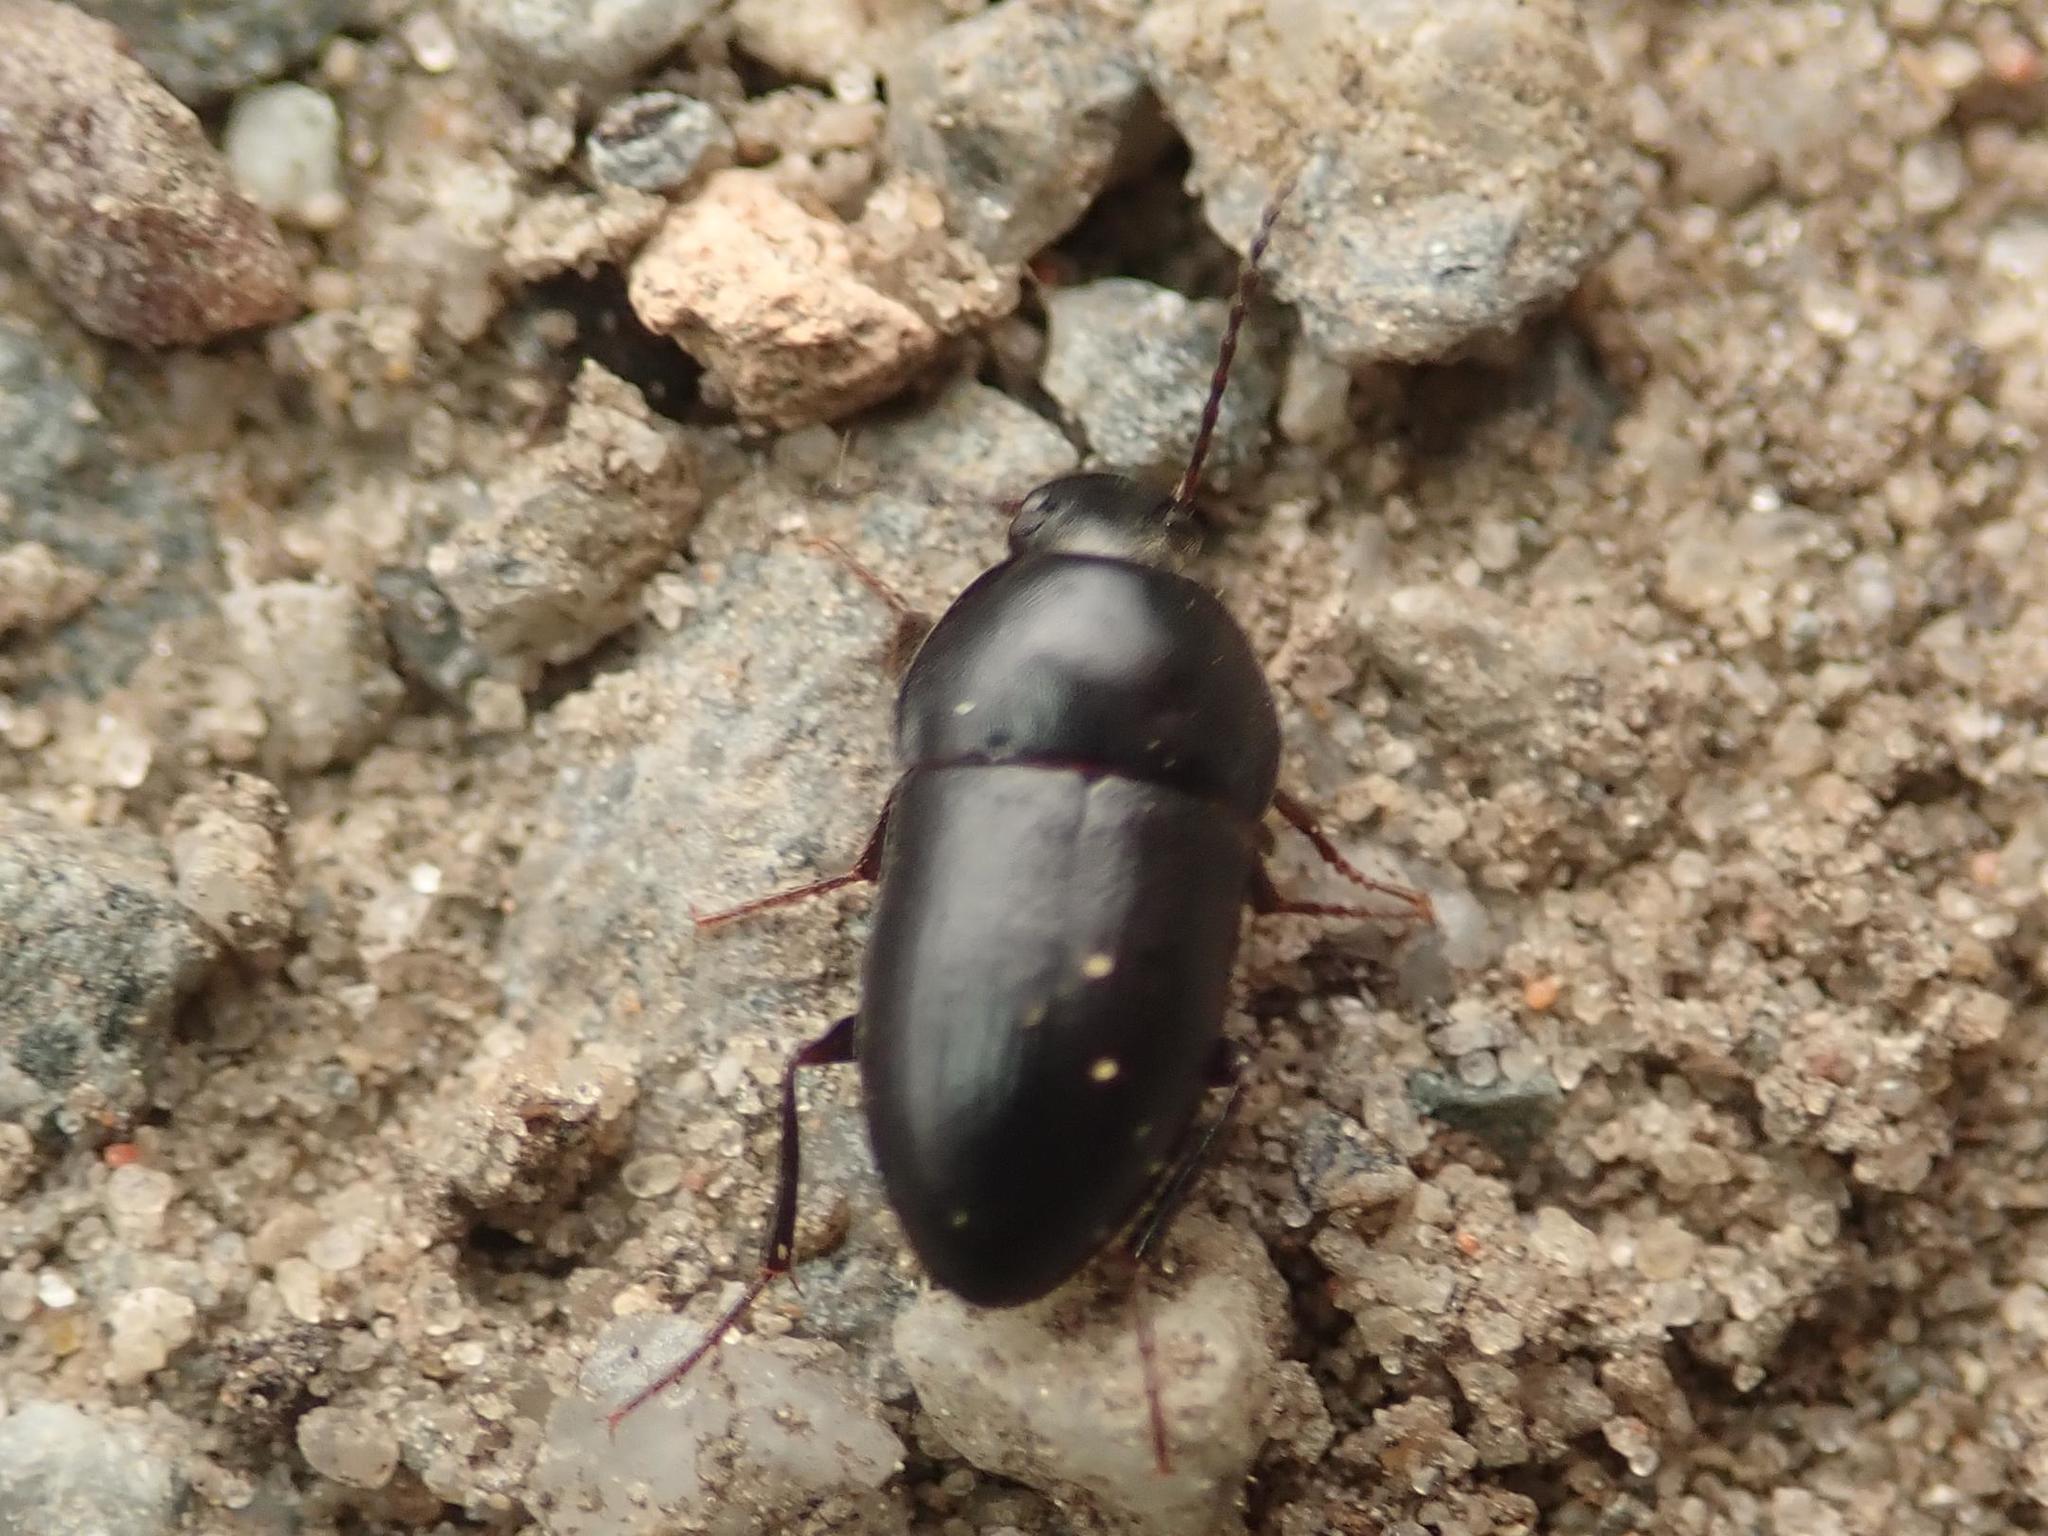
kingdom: Animalia
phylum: Arthropoda
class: Insecta
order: Coleoptera
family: Tenebrionidae
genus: Crypticus
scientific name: Crypticus quisquilius
